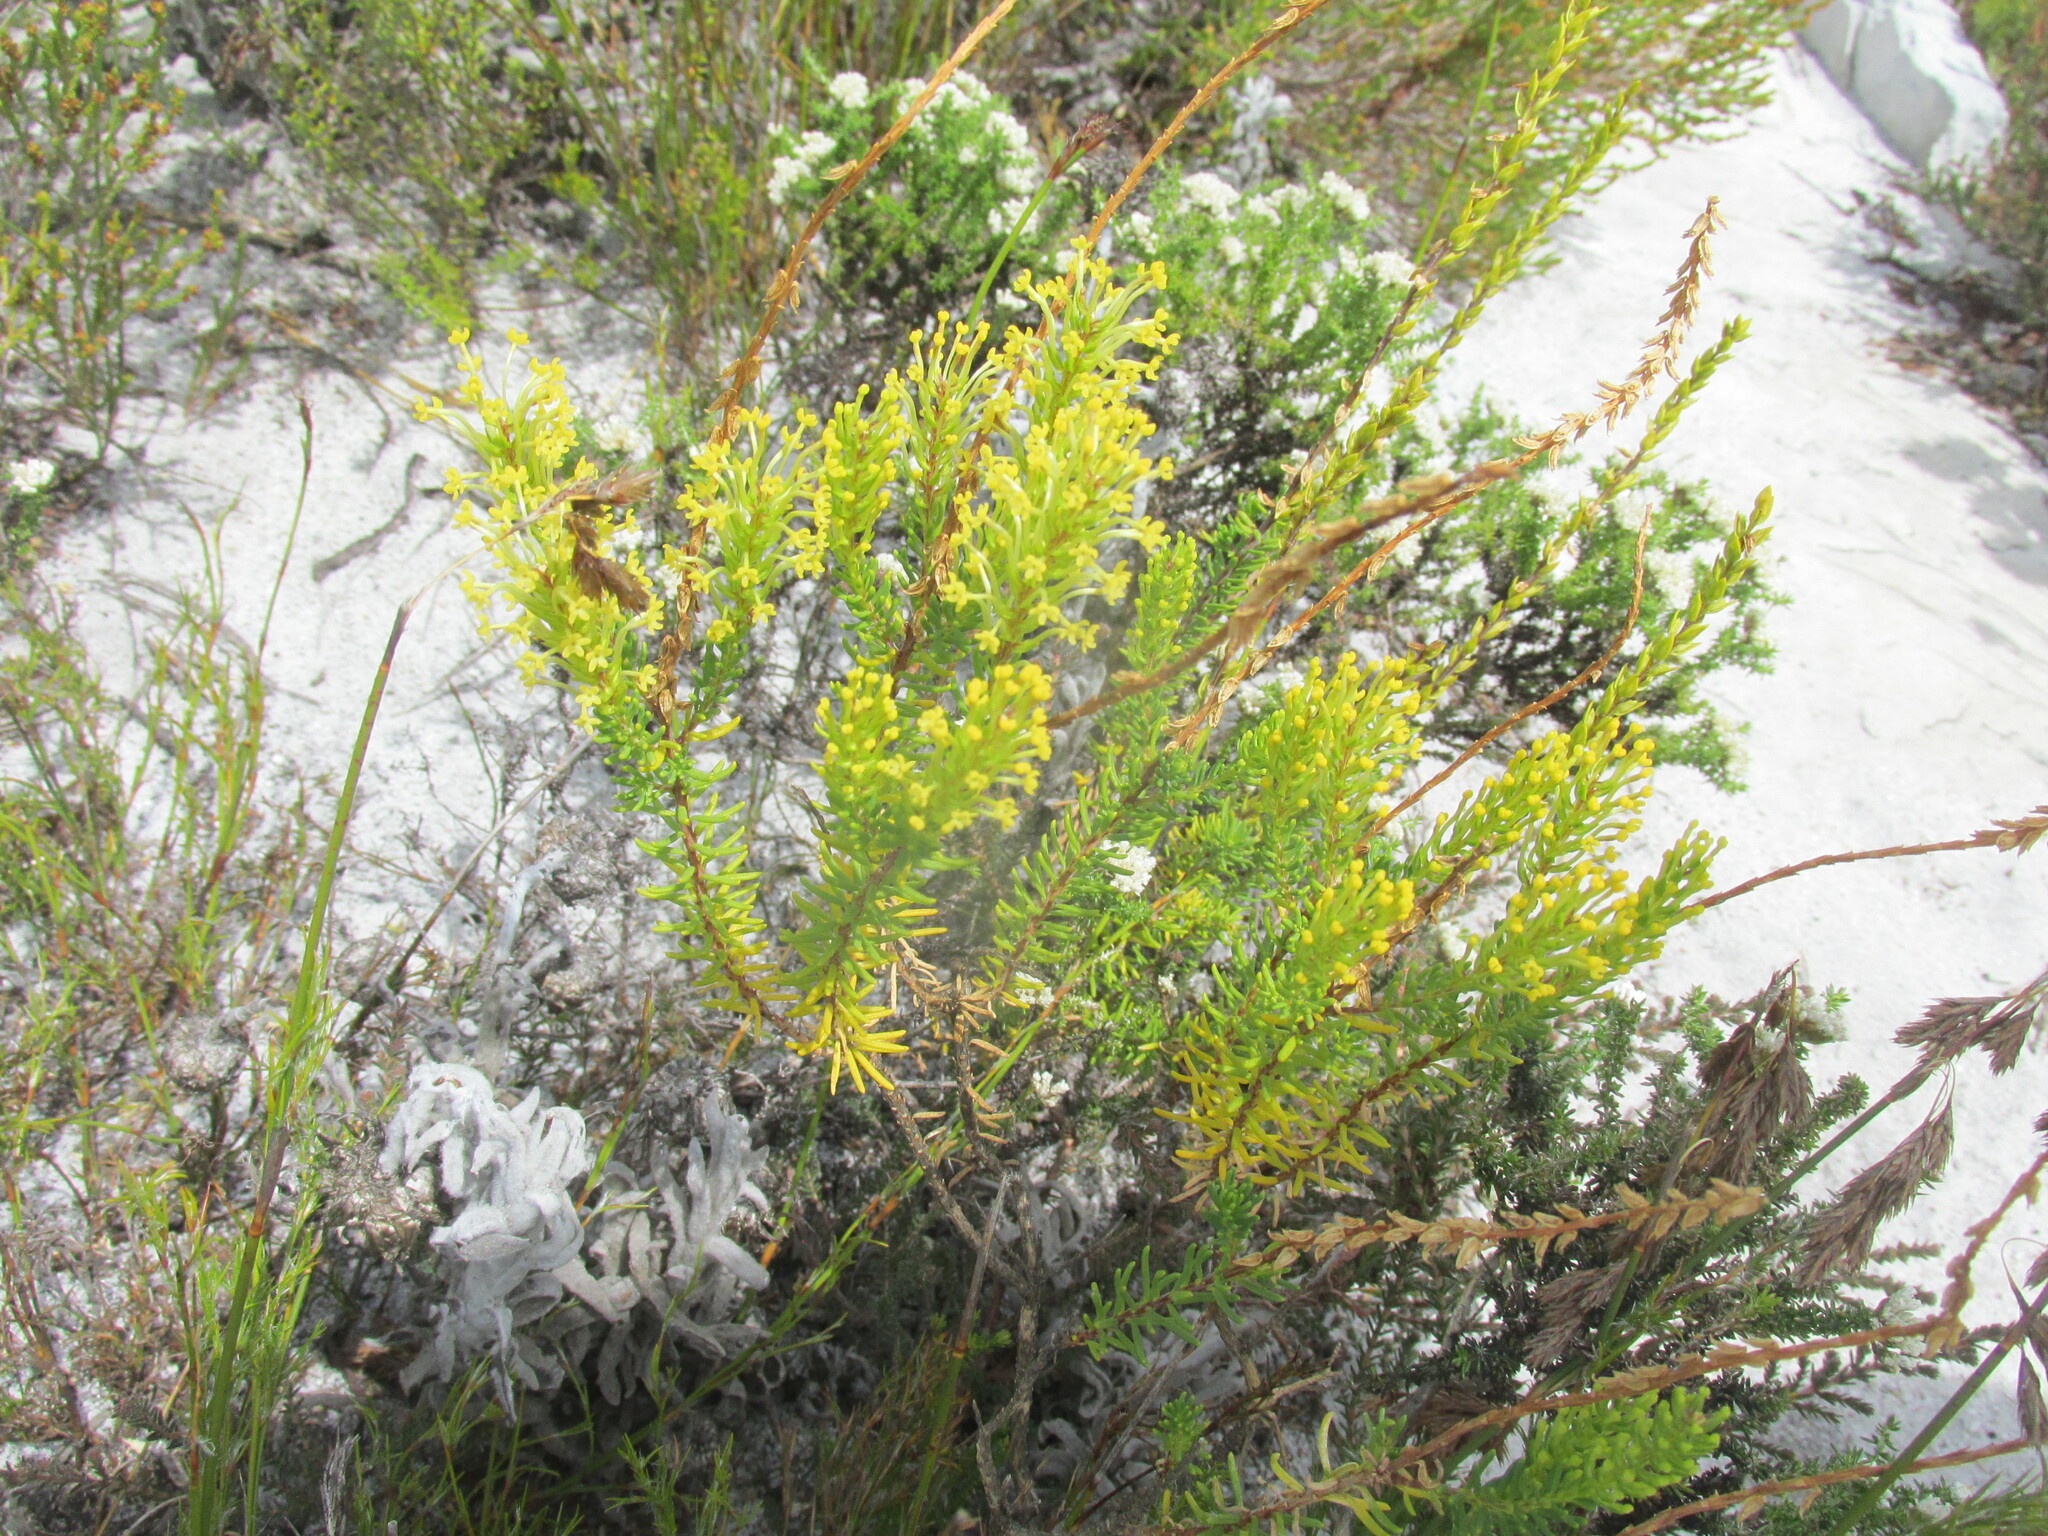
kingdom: Plantae
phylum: Tracheophyta
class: Magnoliopsida
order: Lamiales
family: Scrophulariaceae
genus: Microdon
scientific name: Microdon dubius
